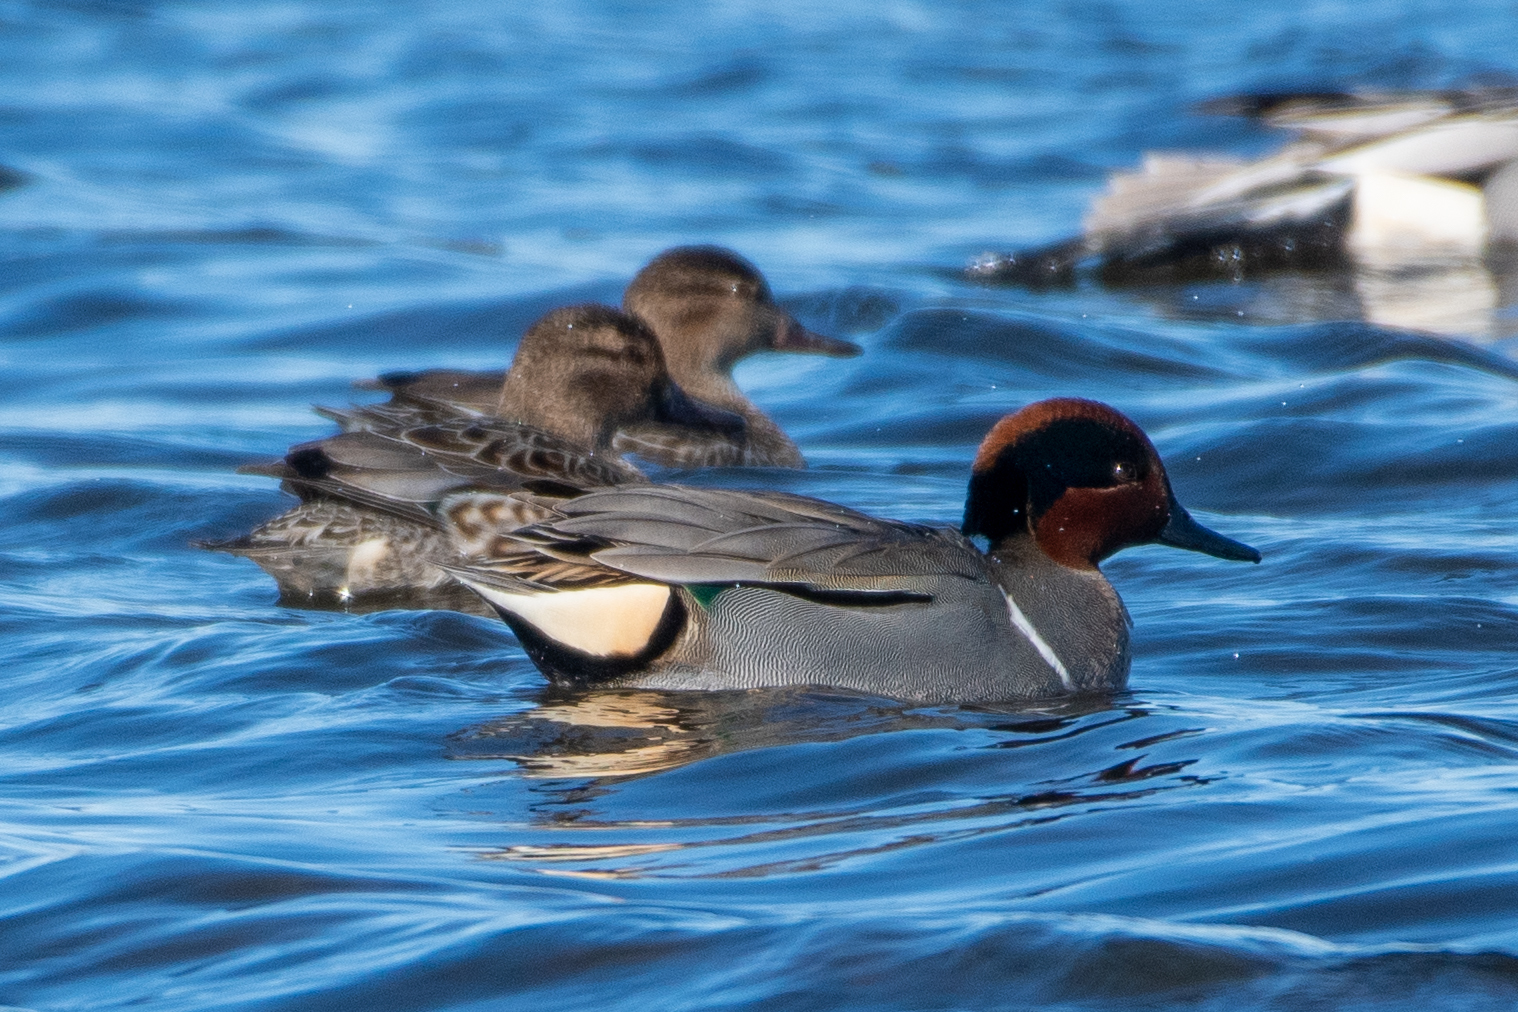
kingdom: Animalia
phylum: Chordata
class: Aves
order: Anseriformes
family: Anatidae
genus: Anas
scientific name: Anas crecca
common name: Eurasian teal
